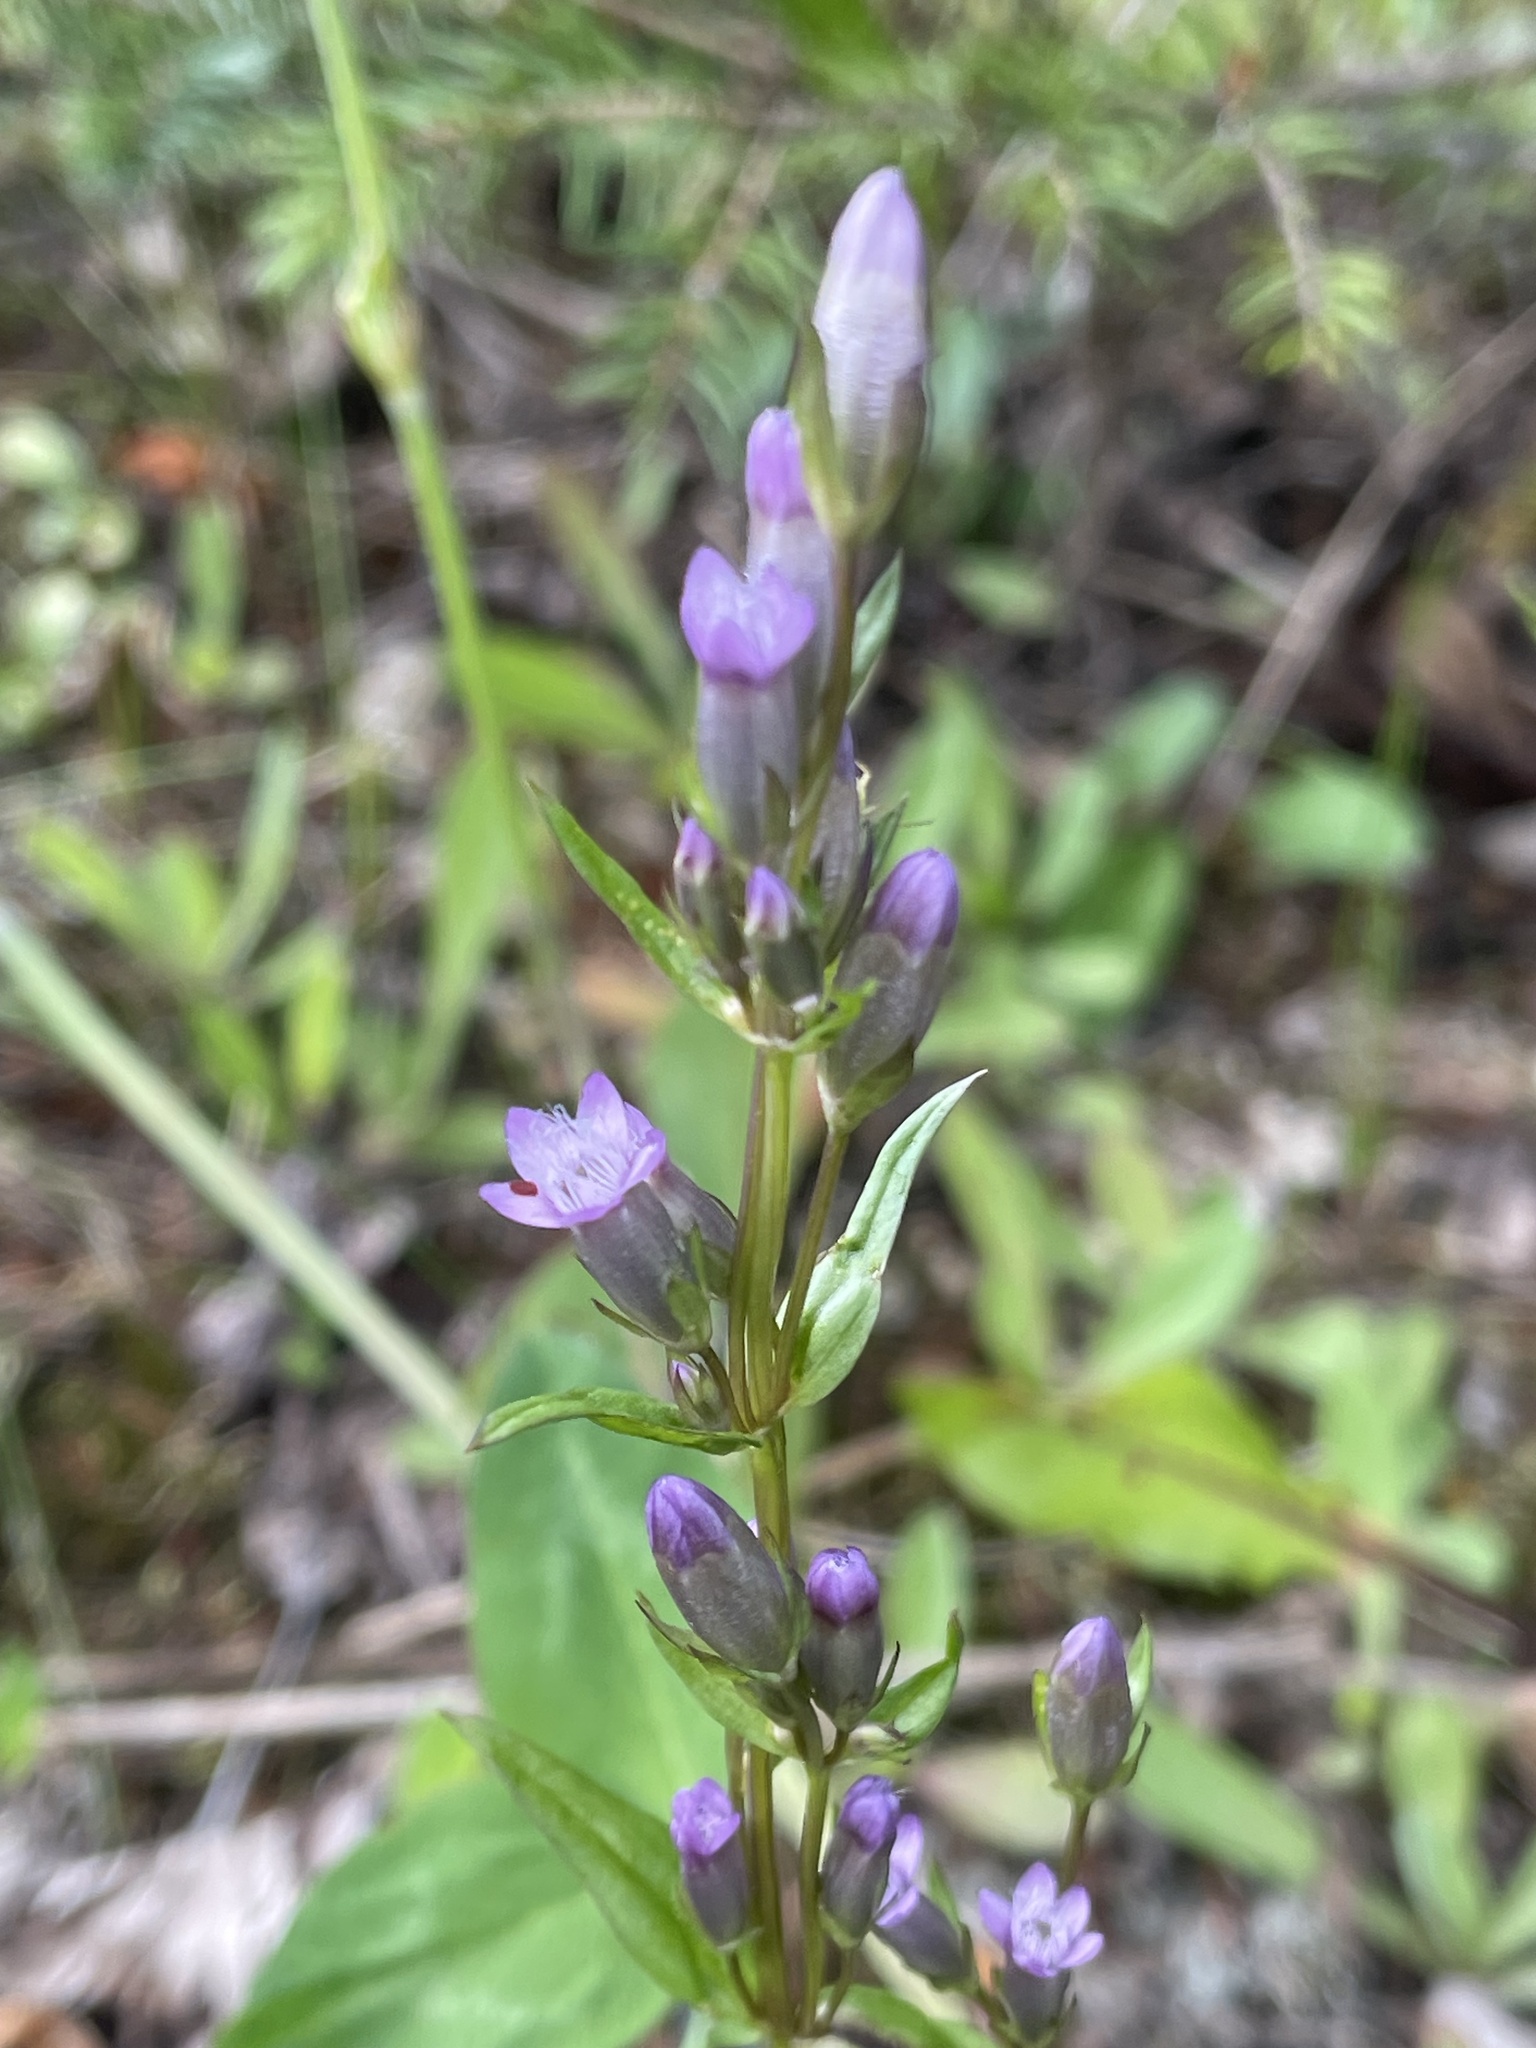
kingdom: Plantae
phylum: Tracheophyta
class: Magnoliopsida
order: Gentianales
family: Gentianaceae
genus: Gentianella
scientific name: Gentianella amarella
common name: Autumn gentian
